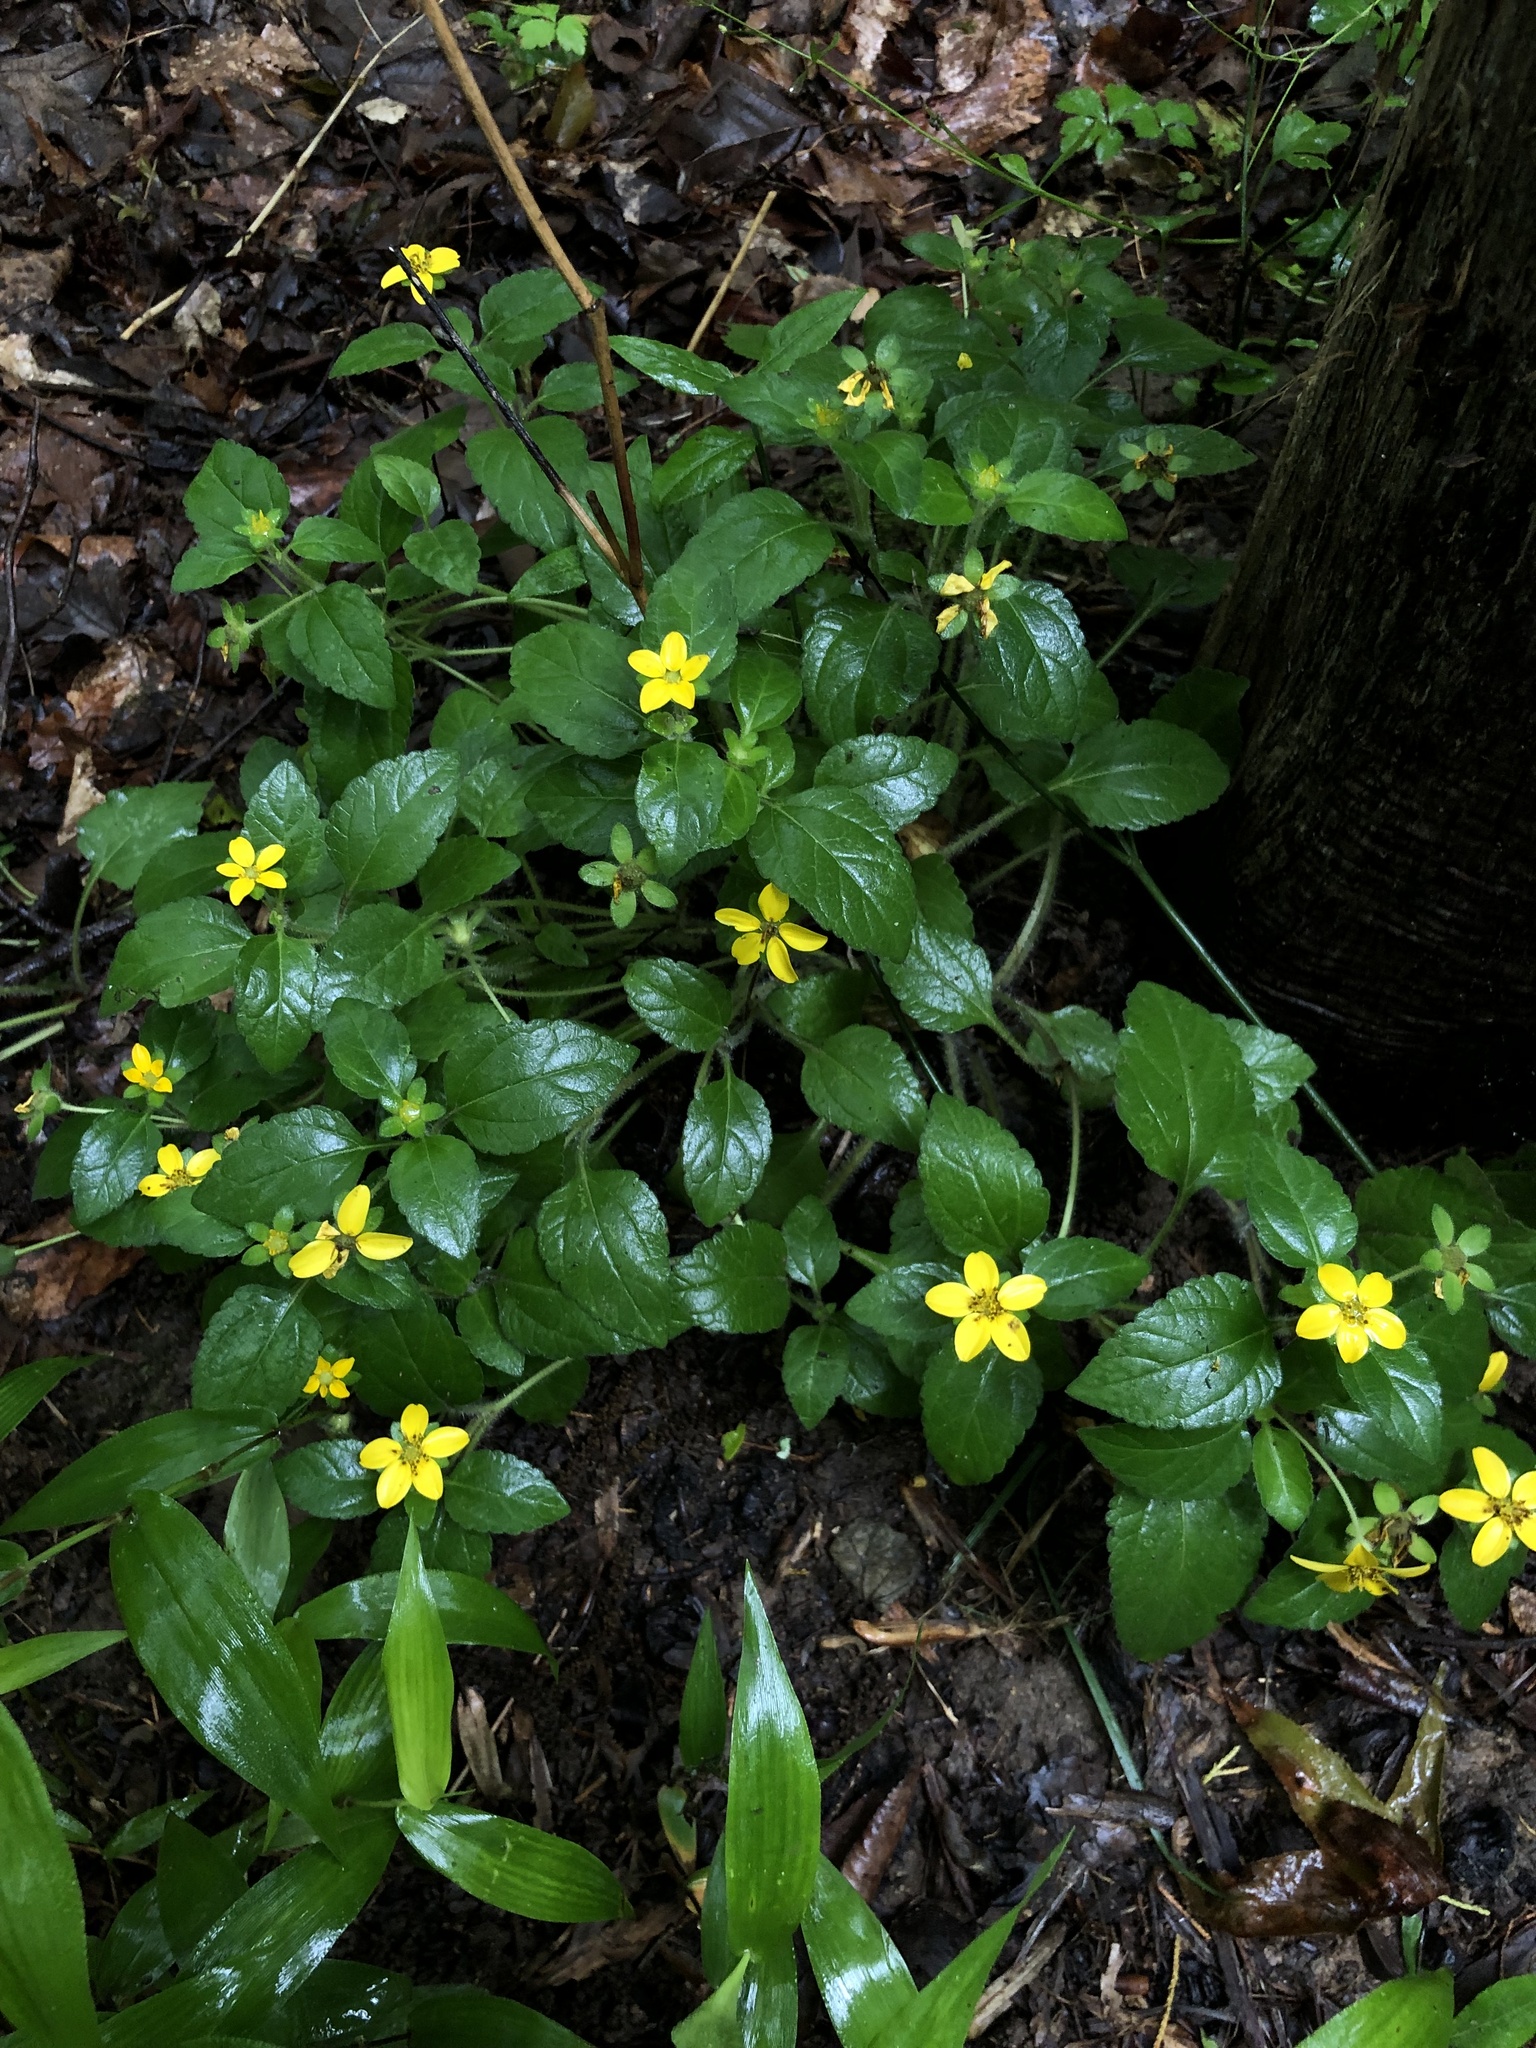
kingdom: Plantae
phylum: Tracheophyta
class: Magnoliopsida
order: Asterales
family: Asteraceae
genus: Chrysogonum
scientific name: Chrysogonum virginianum
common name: Golden-knee
